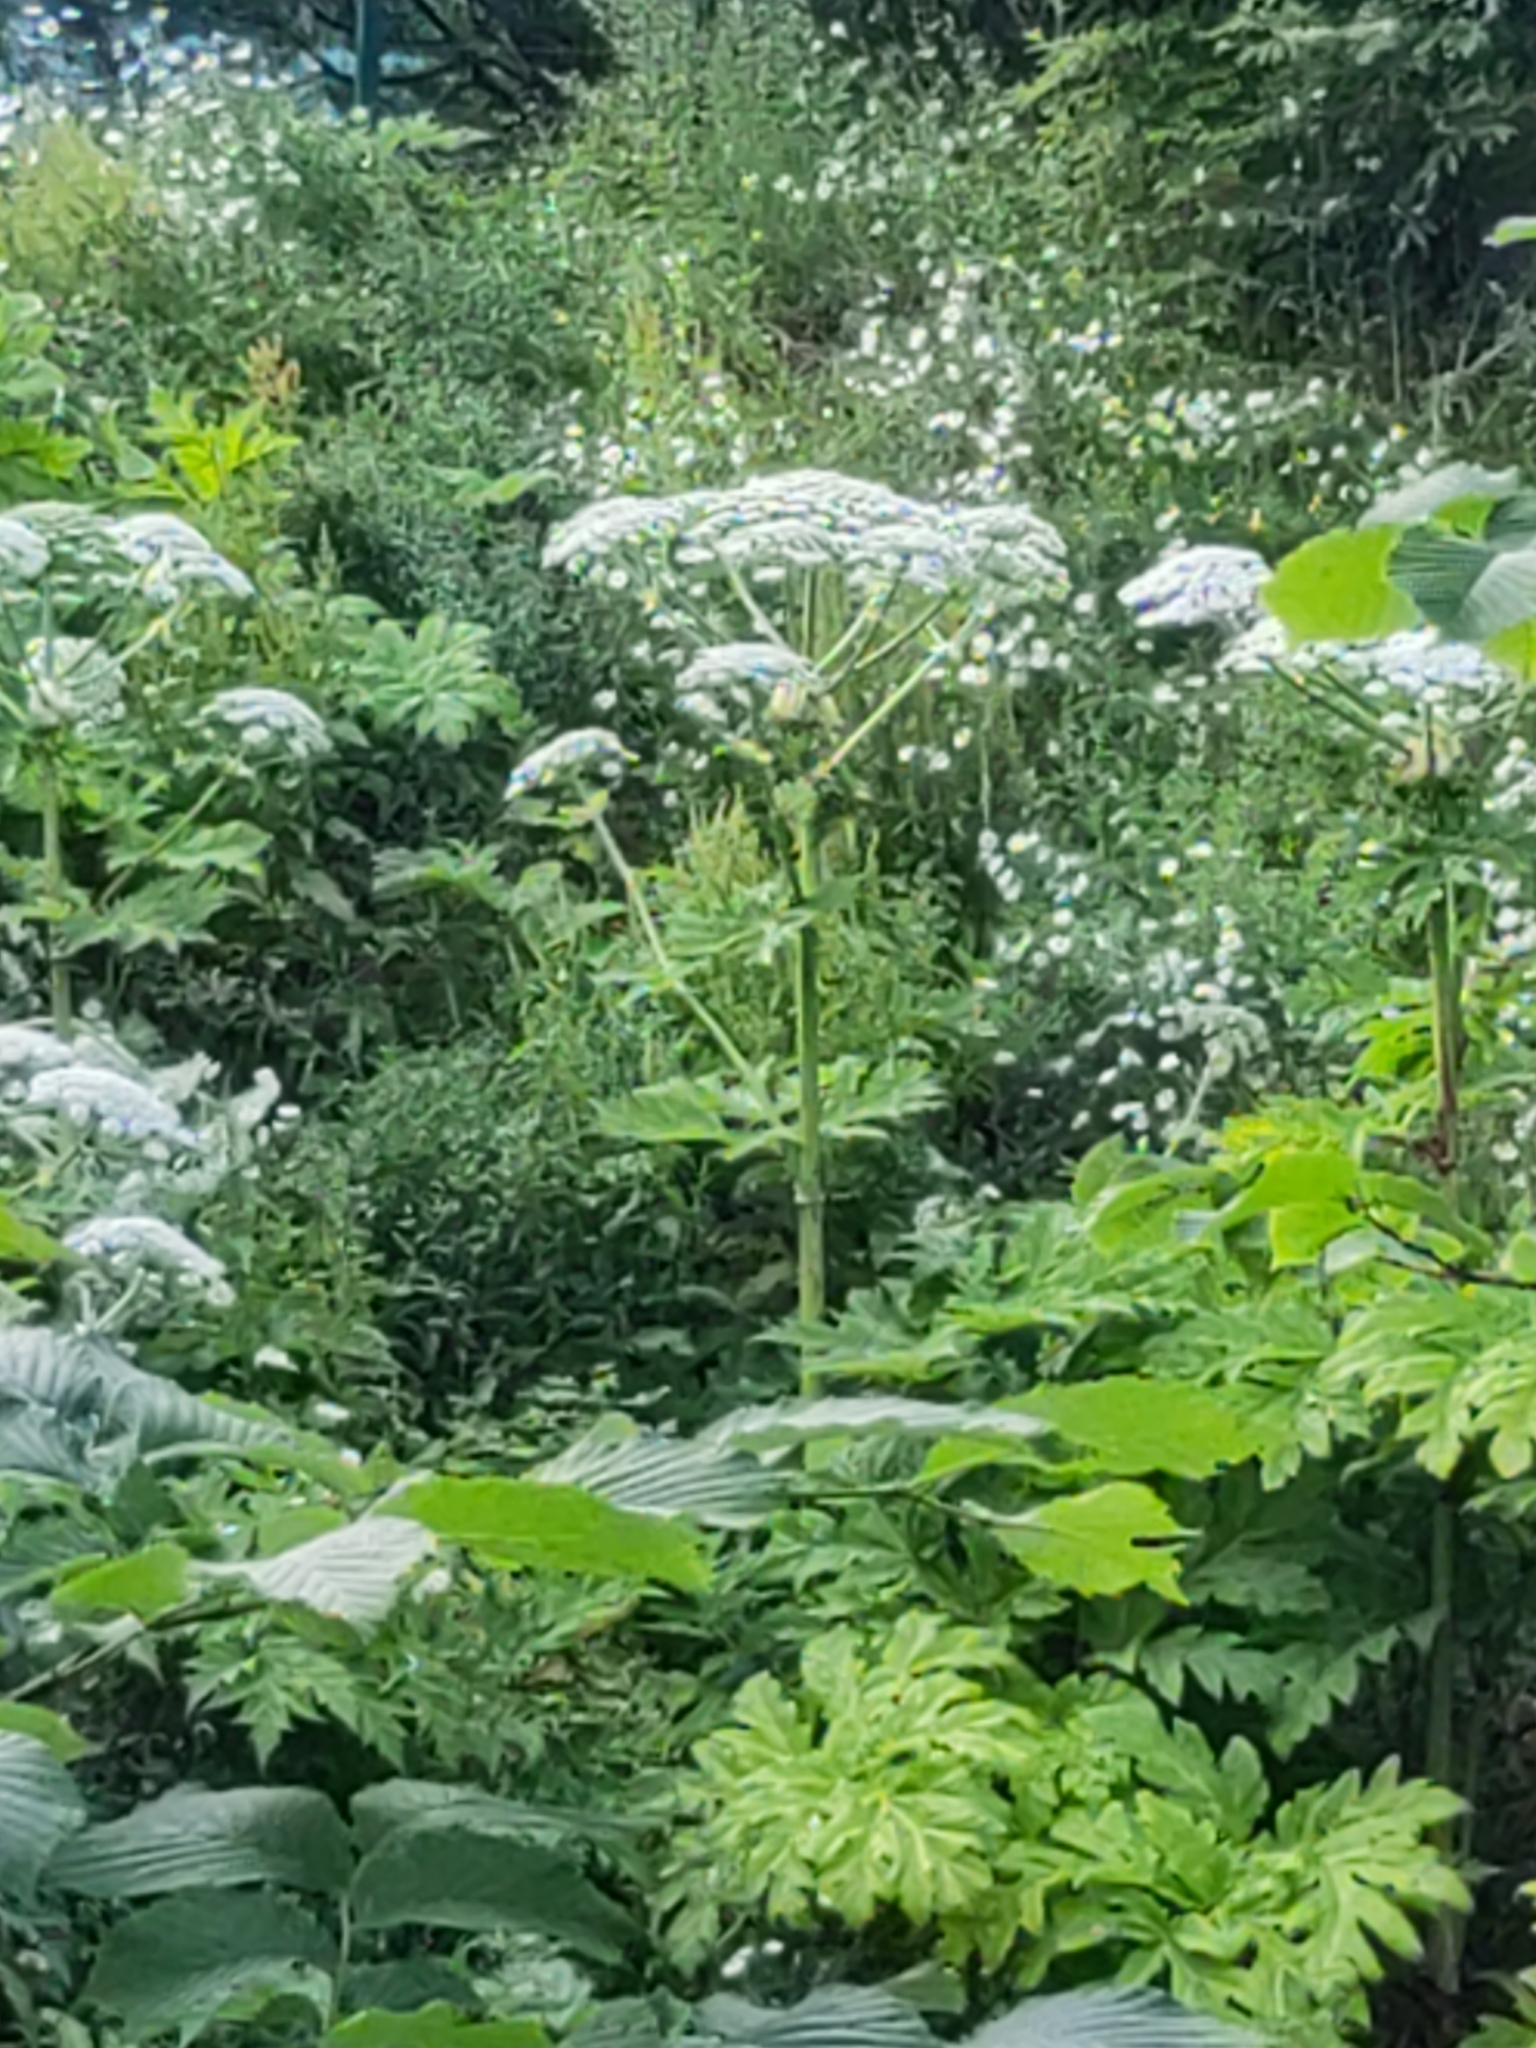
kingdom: Plantae
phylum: Tracheophyta
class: Magnoliopsida
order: Apiales
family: Apiaceae
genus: Heracleum
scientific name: Heracleum mantegazzianum
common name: Giant hogweed
